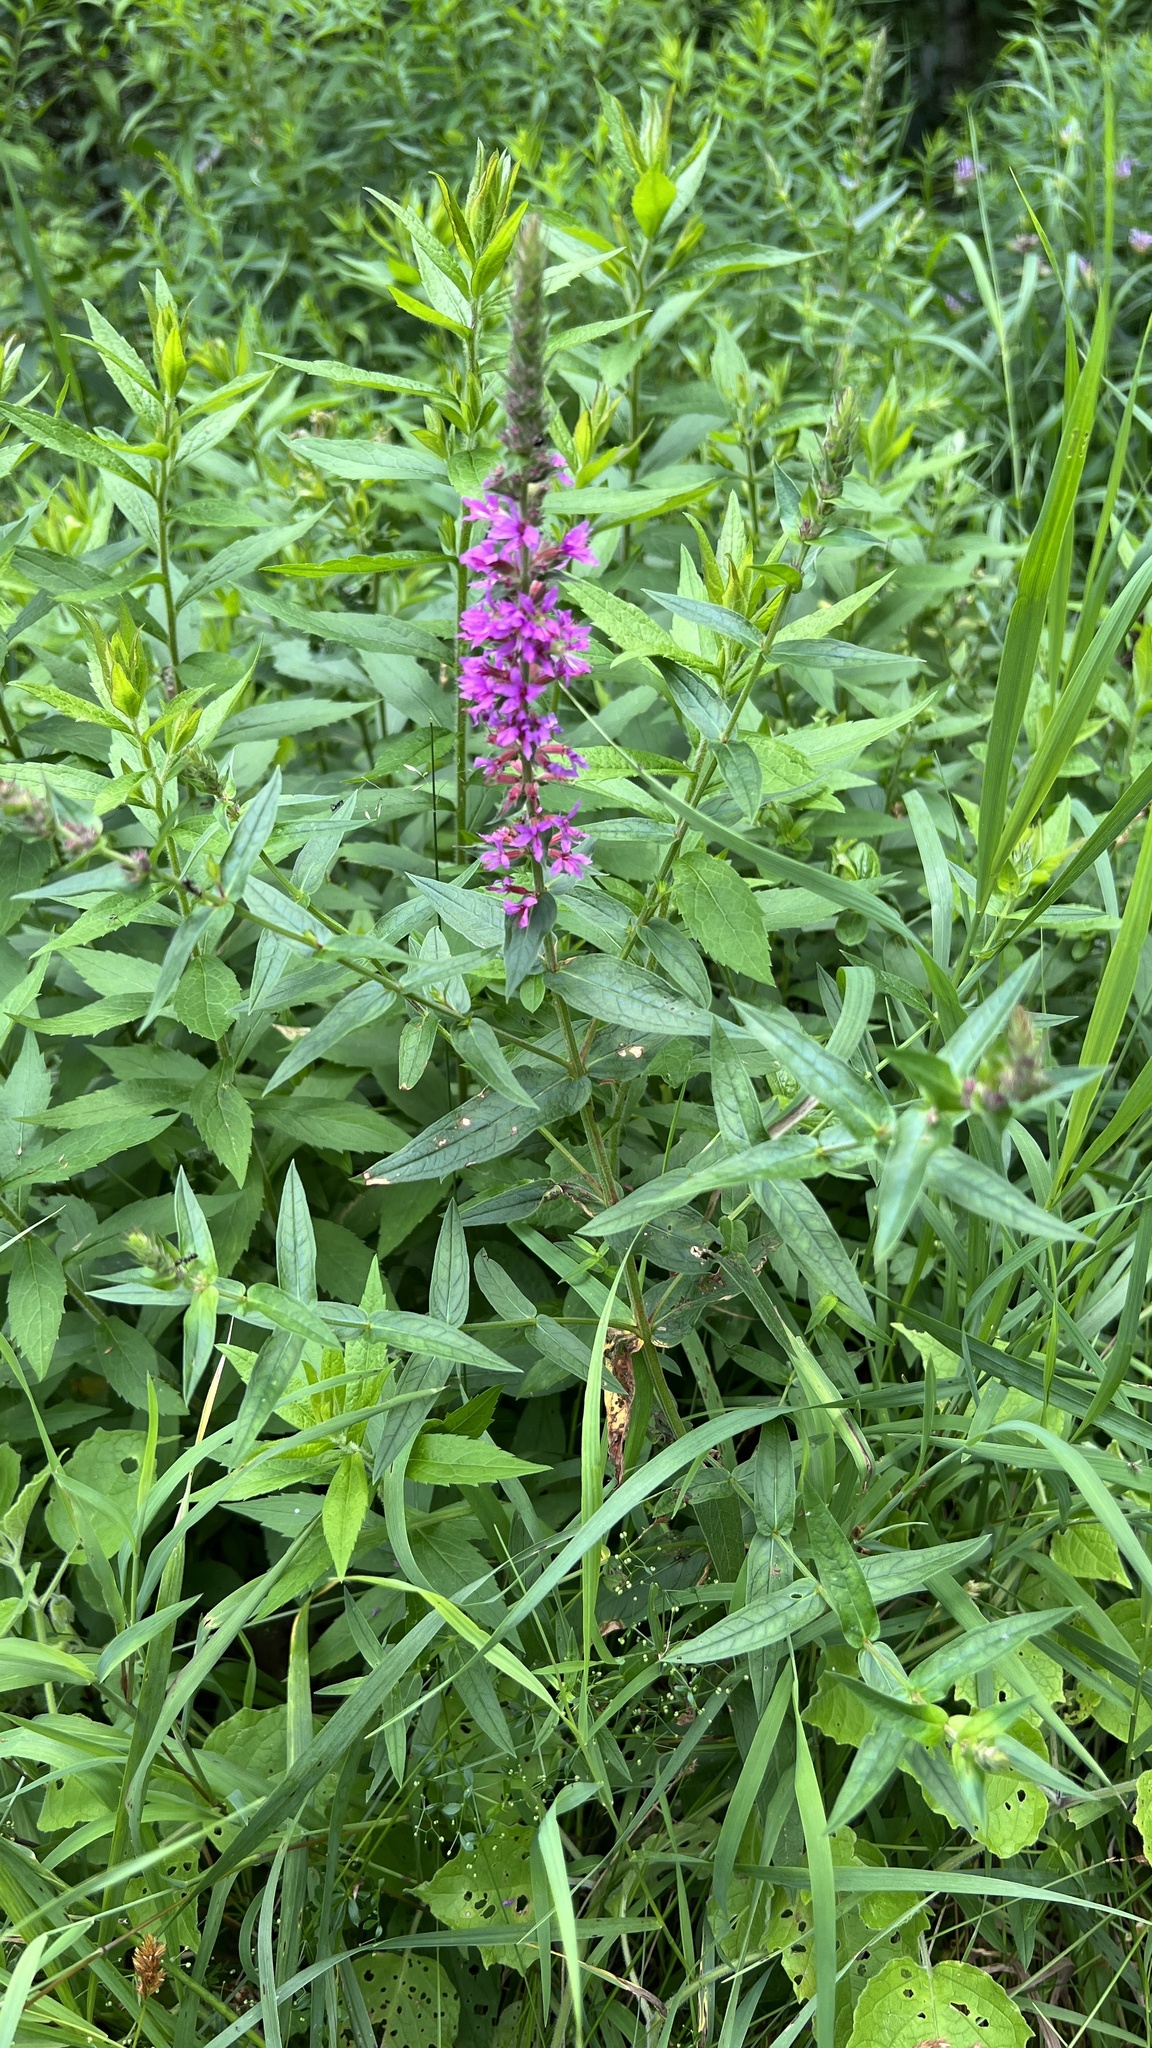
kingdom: Plantae
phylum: Tracheophyta
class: Magnoliopsida
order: Myrtales
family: Lythraceae
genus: Lythrum
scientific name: Lythrum salicaria
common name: Purple loosestrife
